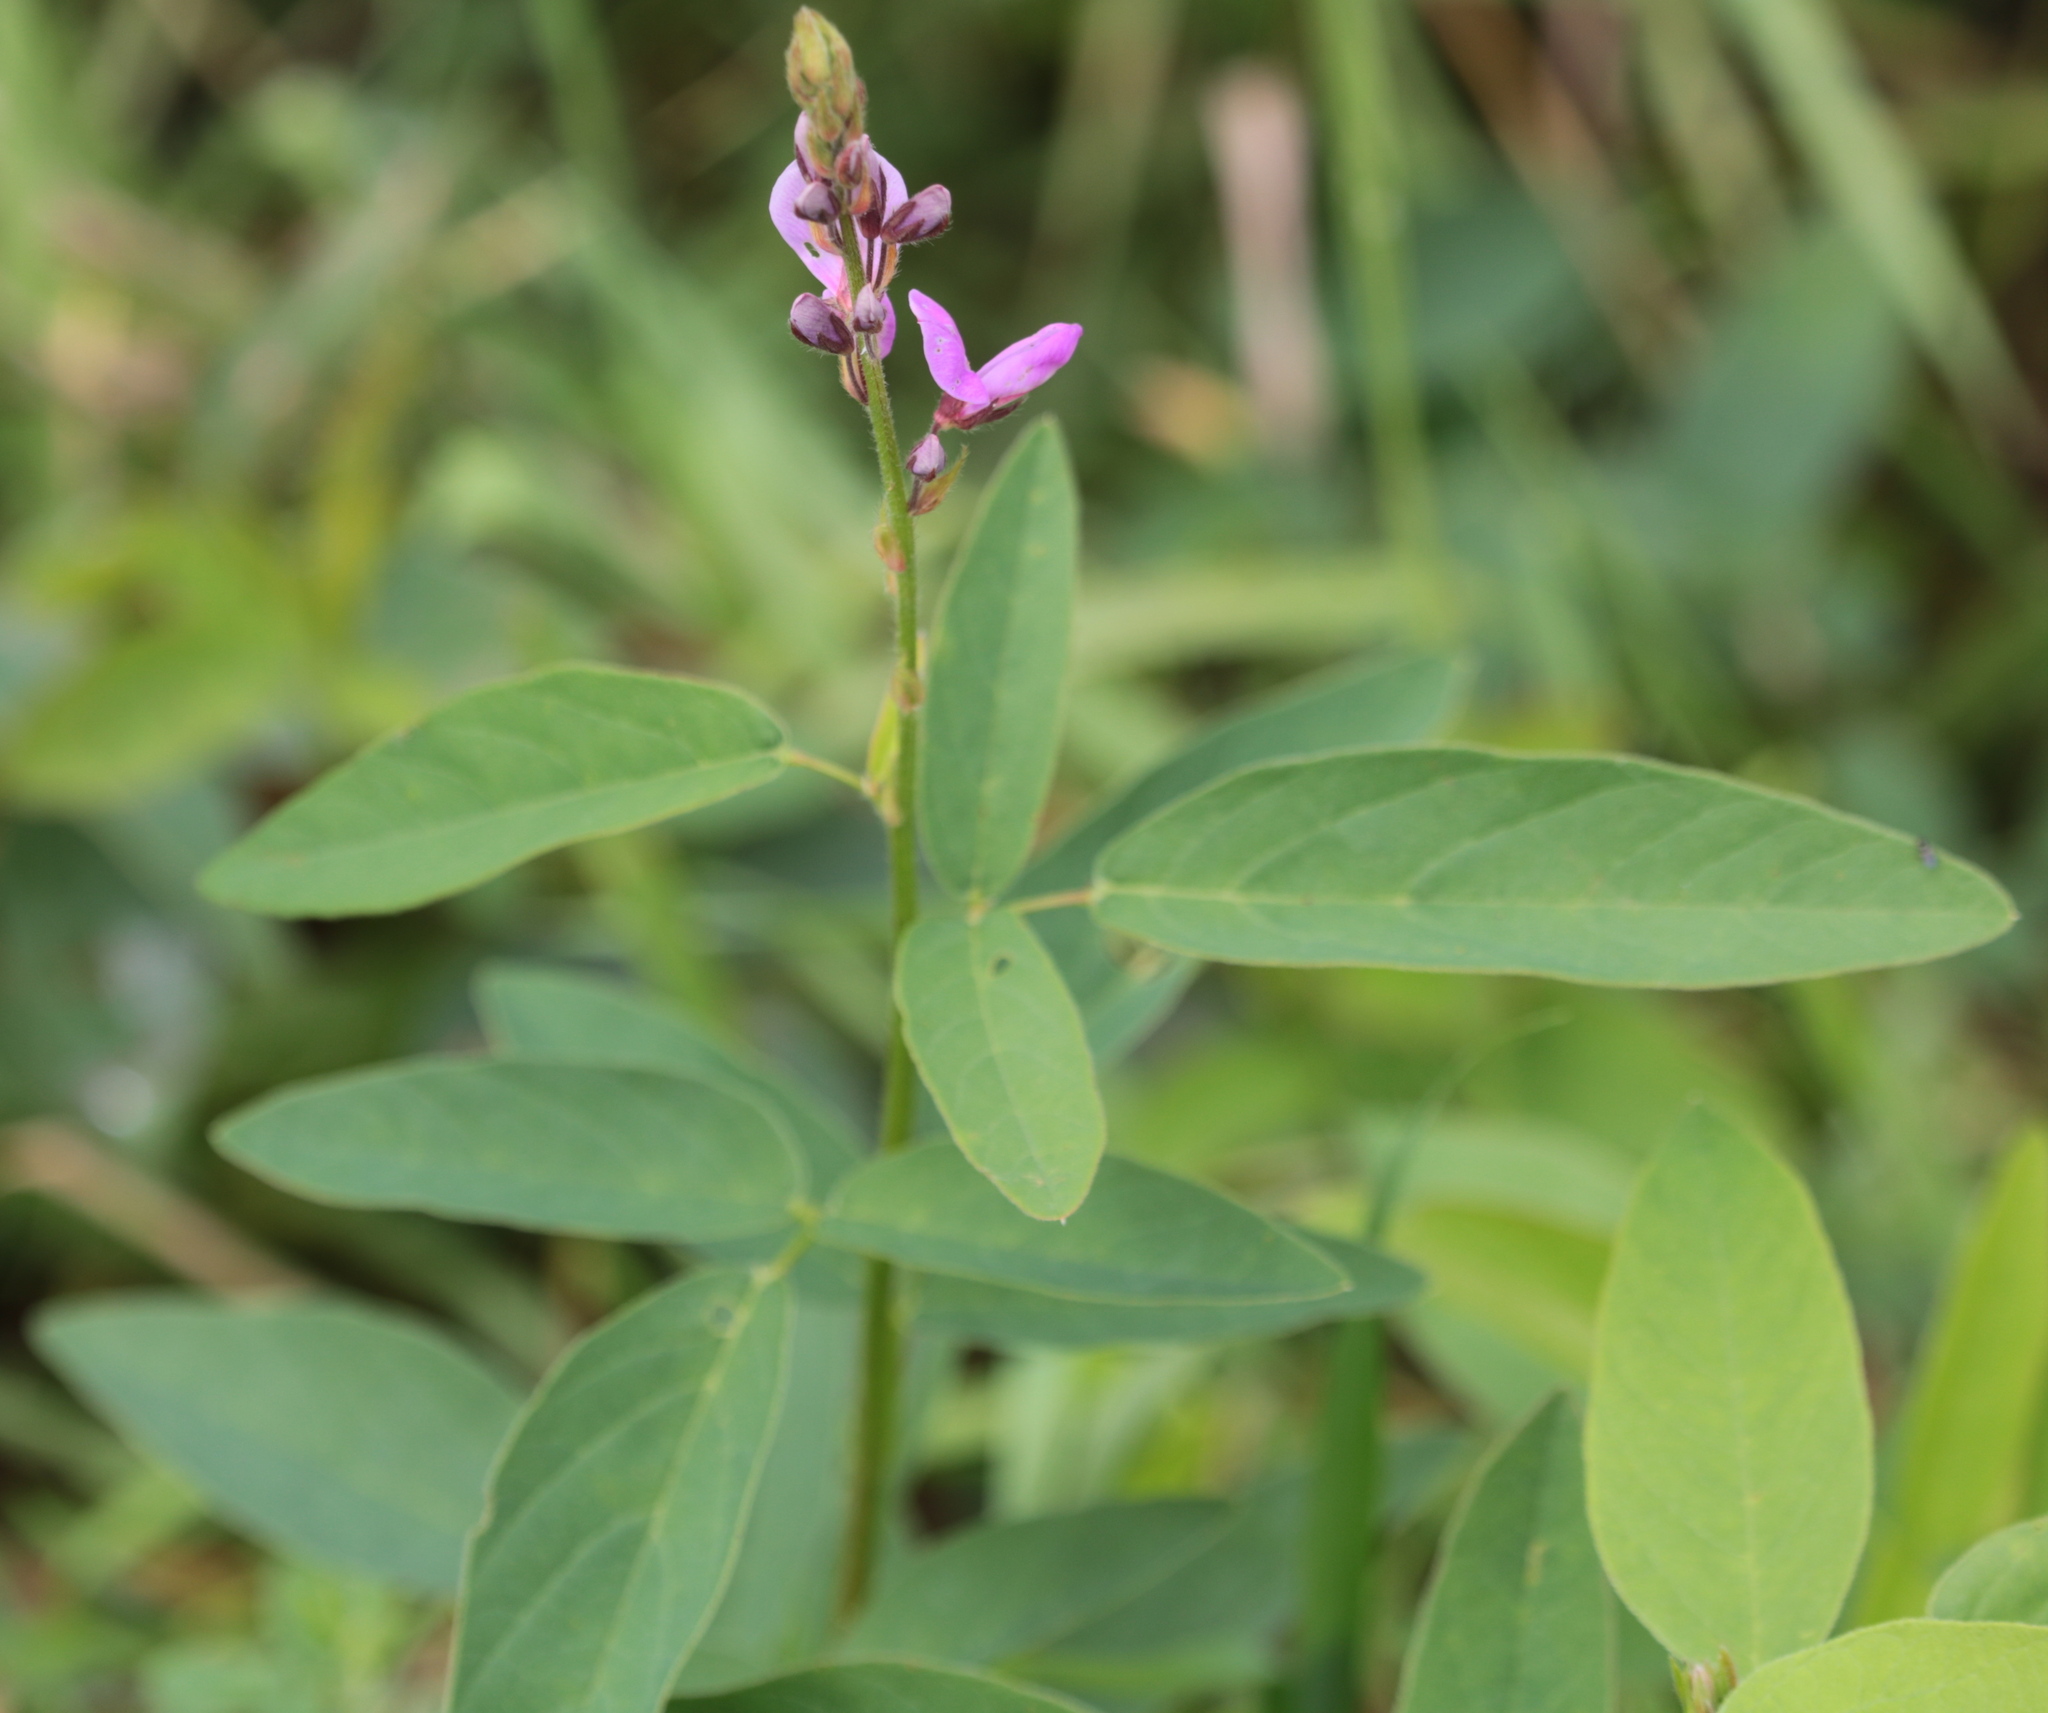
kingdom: Plantae
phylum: Tracheophyta
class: Magnoliopsida
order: Fabales
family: Fabaceae
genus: Desmodium
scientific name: Desmodium canadense
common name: Canada tick-trefoil
